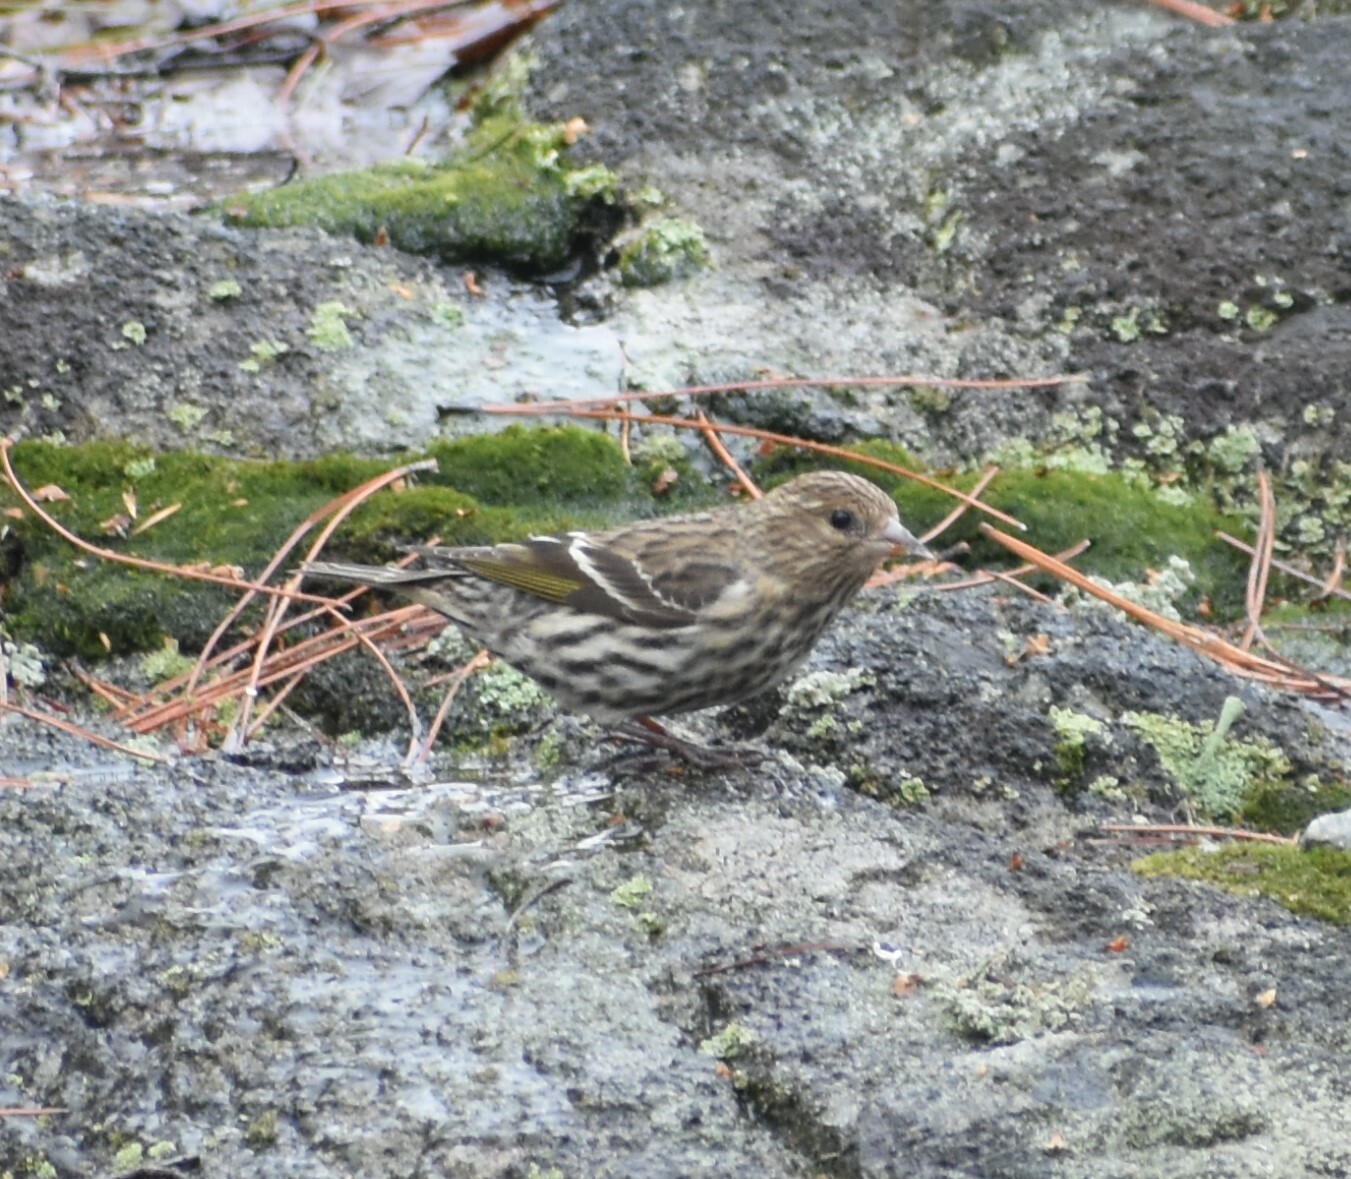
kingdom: Animalia
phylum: Chordata
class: Aves
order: Passeriformes
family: Fringillidae
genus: Spinus
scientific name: Spinus pinus
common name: Pine siskin
